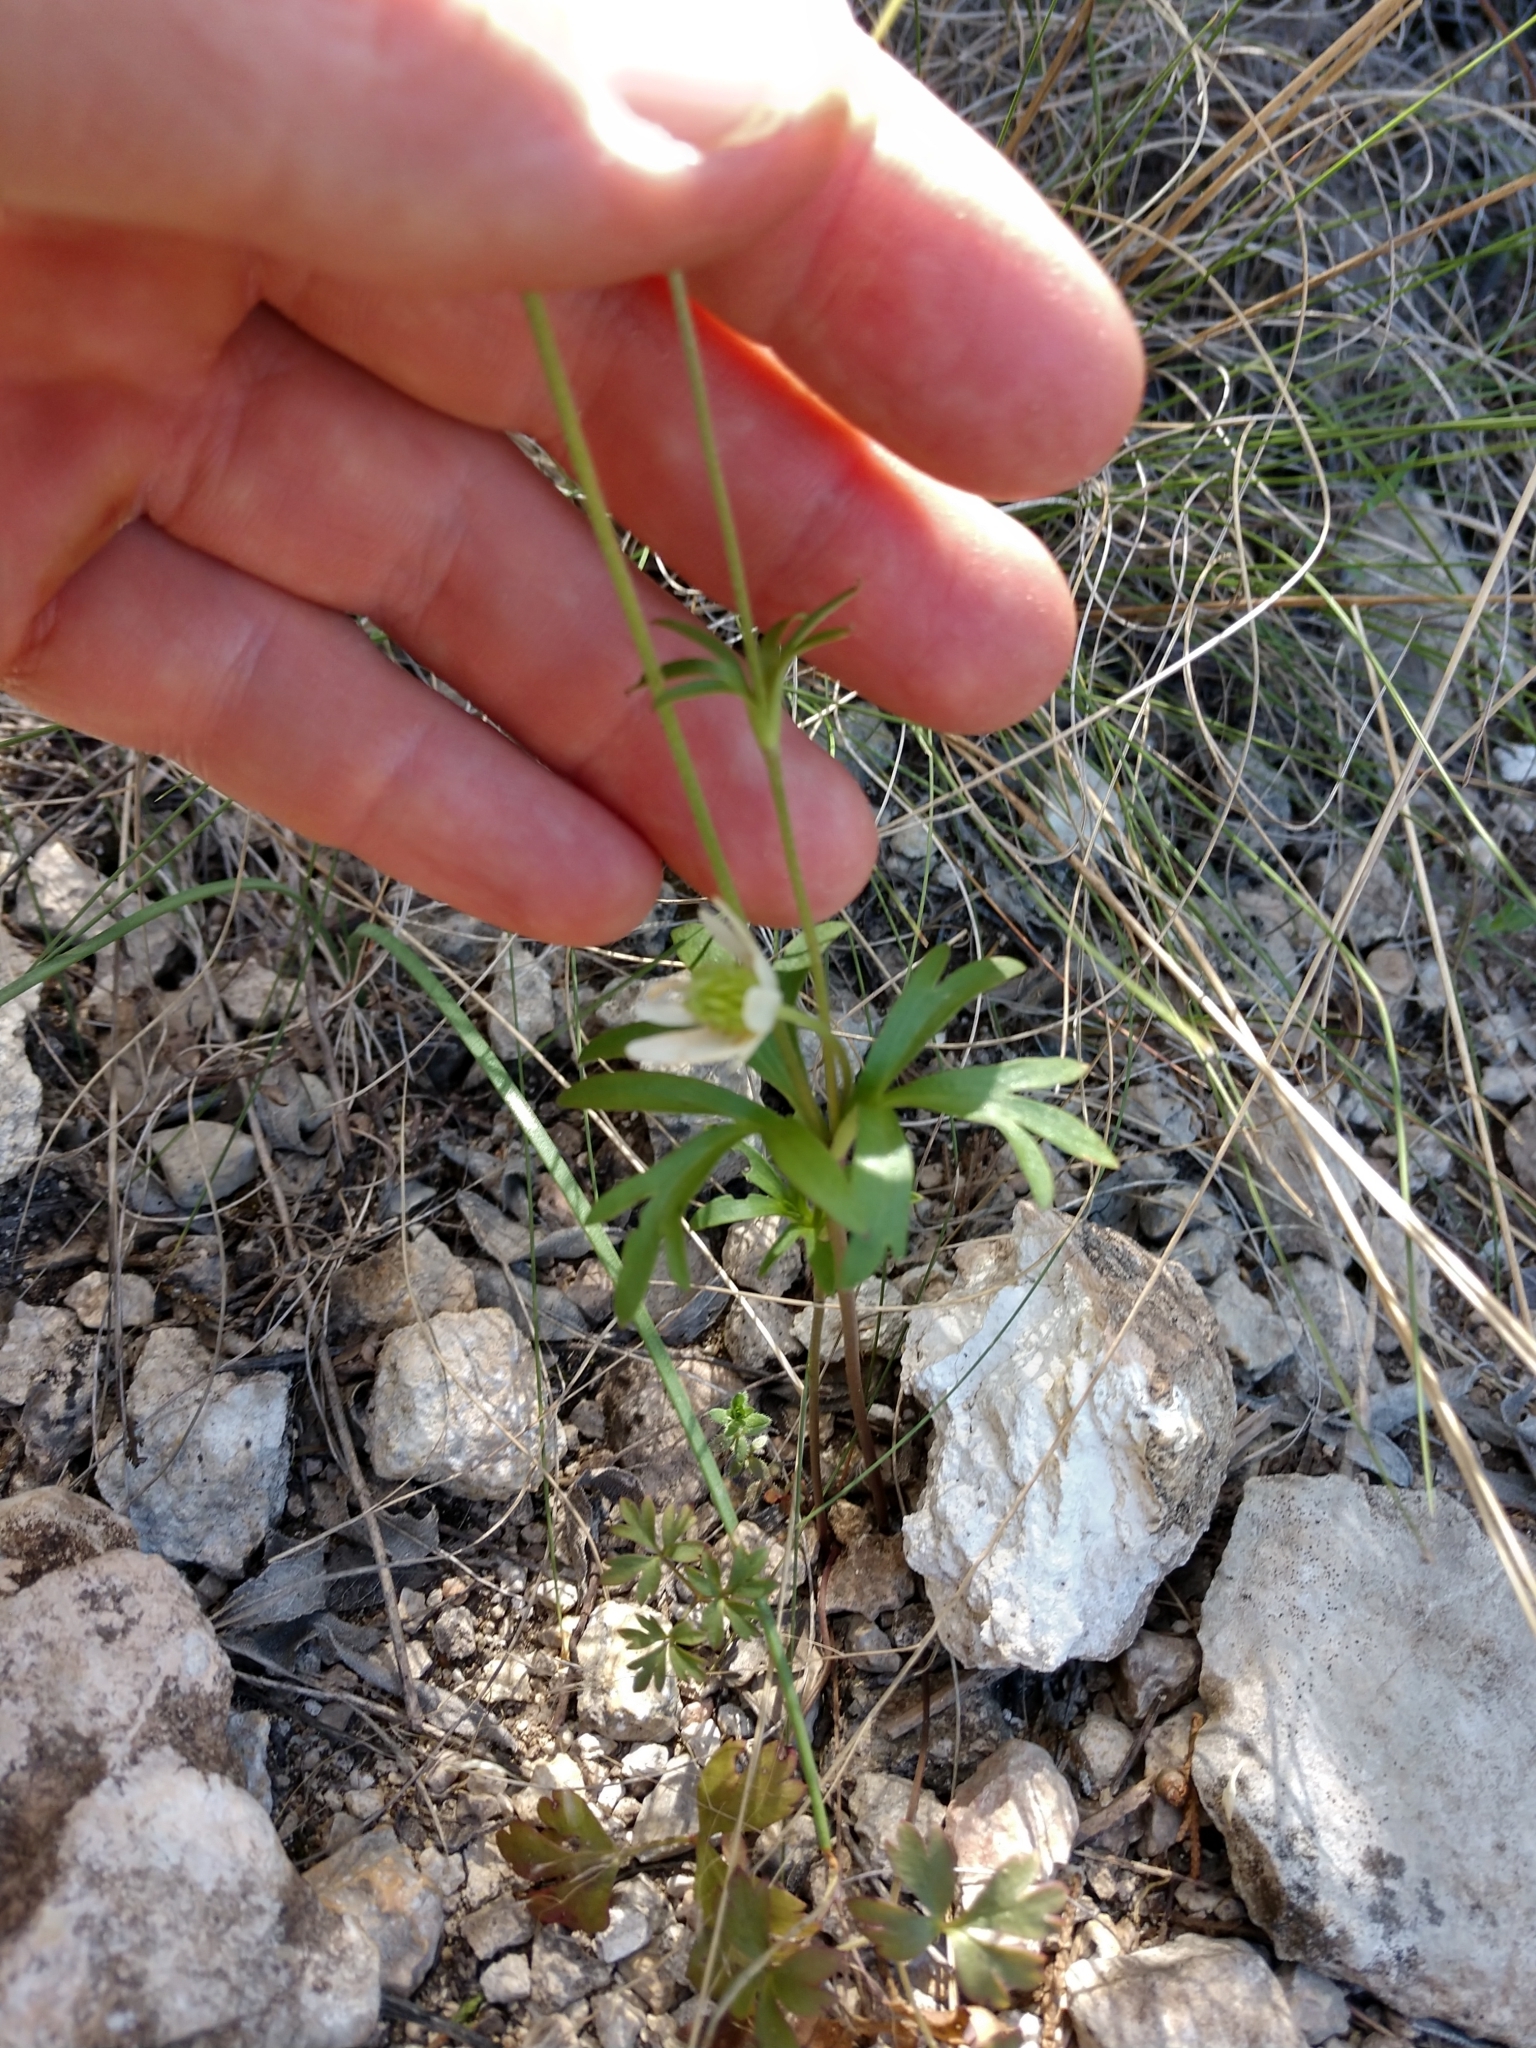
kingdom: Plantae
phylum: Tracheophyta
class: Magnoliopsida
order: Ranunculales
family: Ranunculaceae
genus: Anemone
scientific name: Anemone edwardsiana
